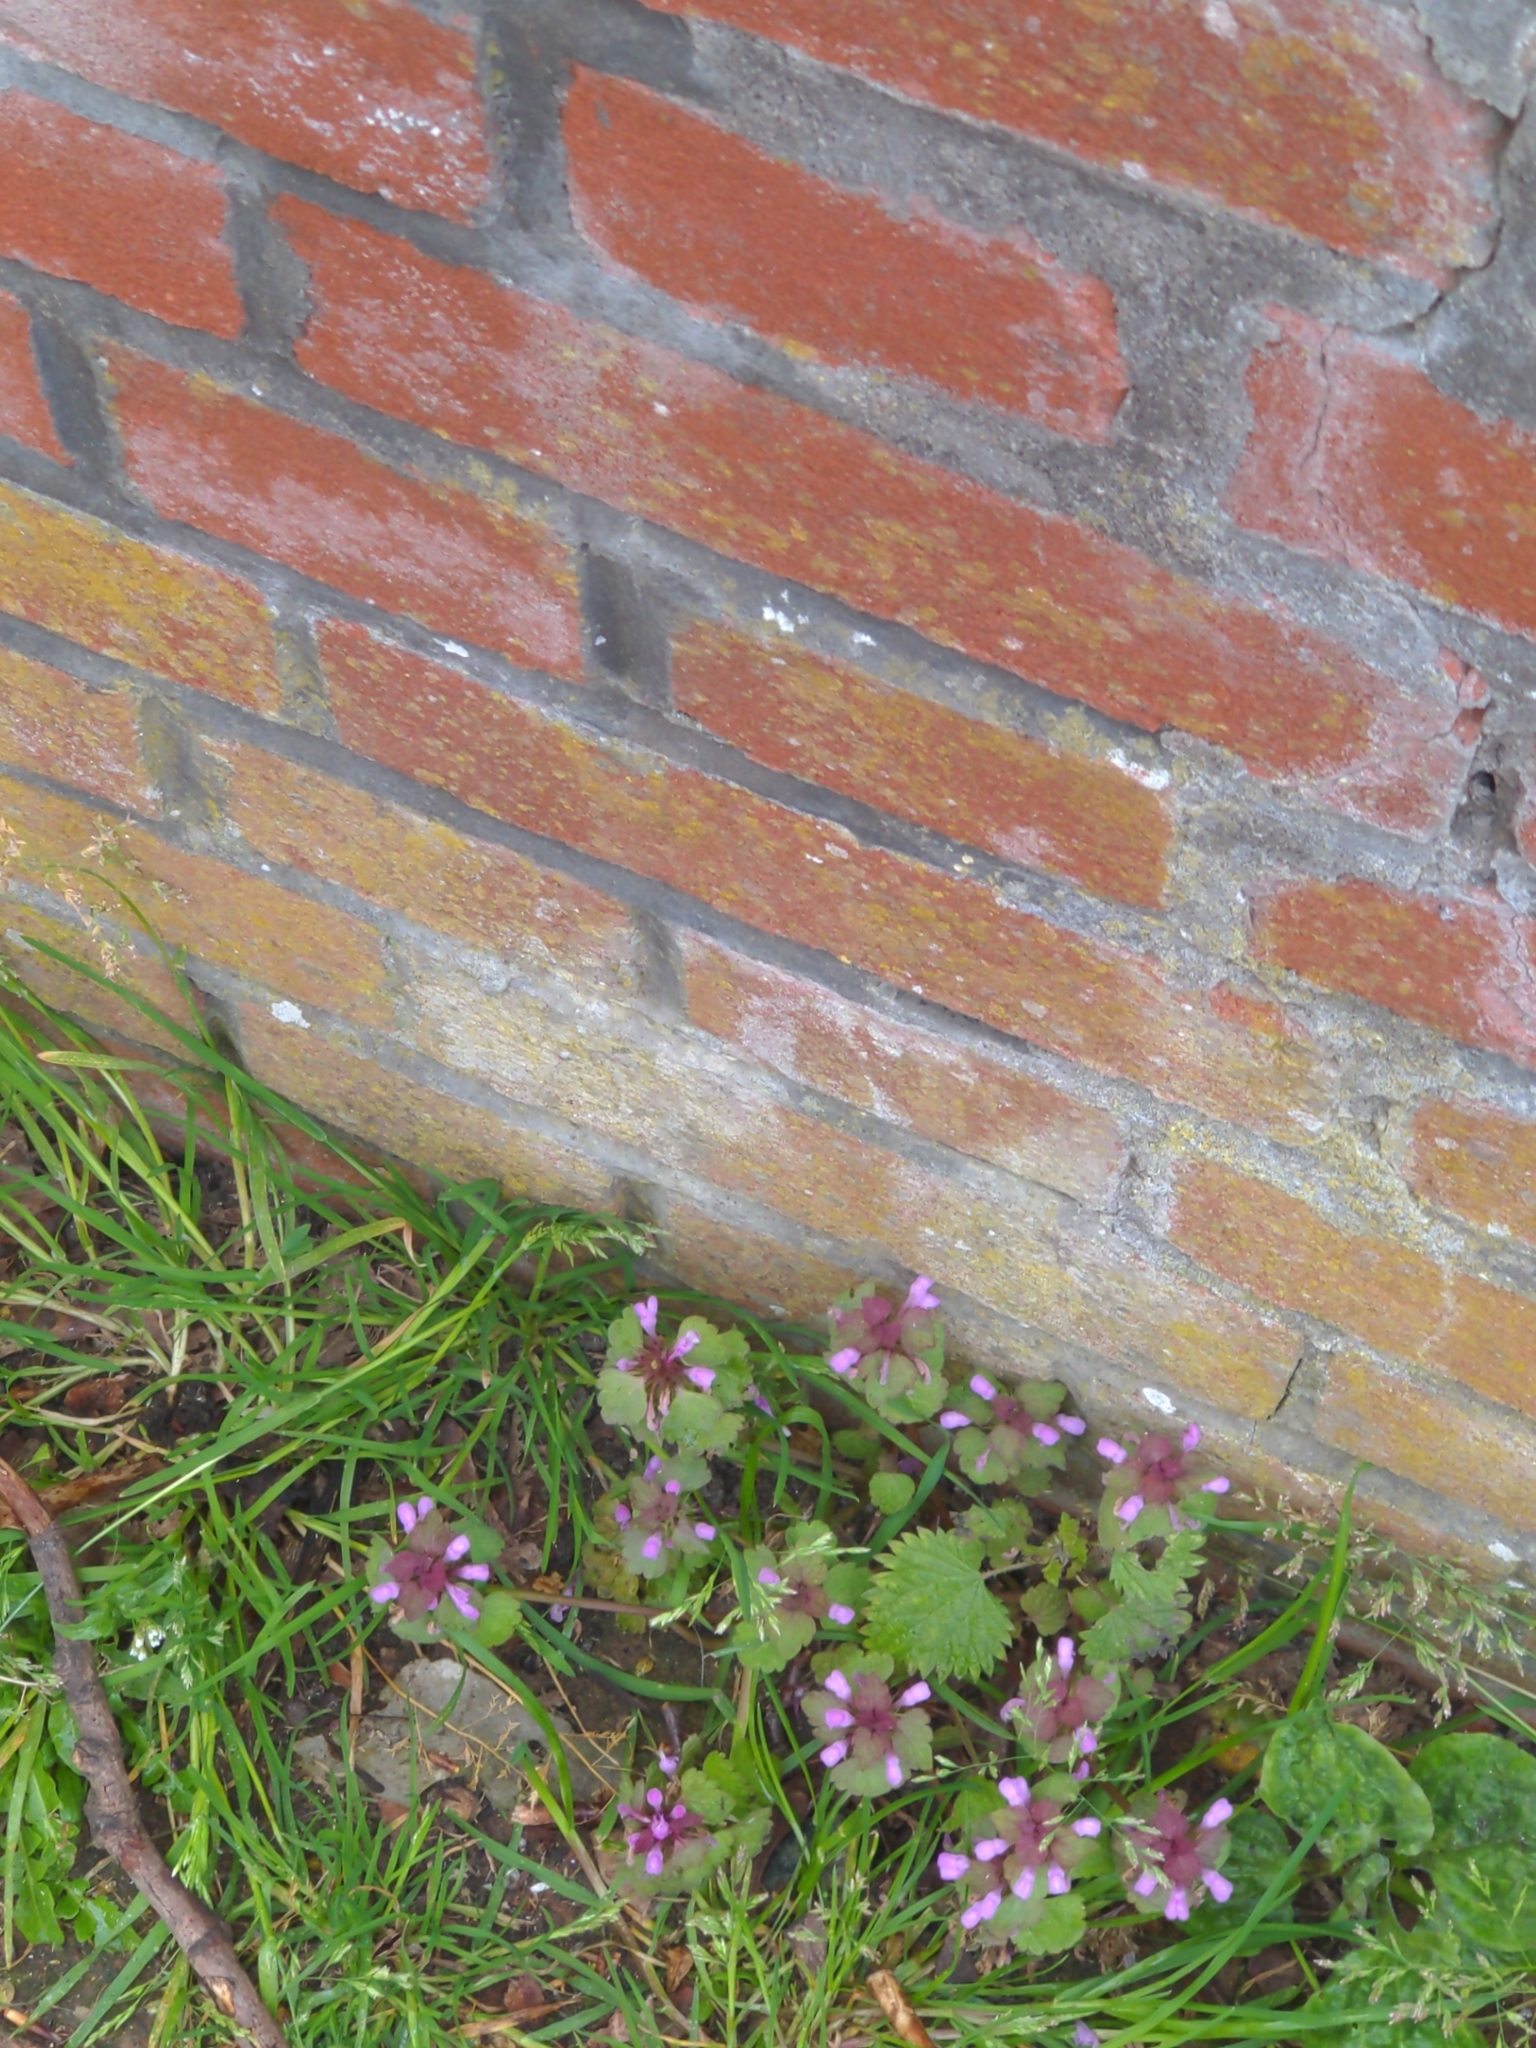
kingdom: Plantae
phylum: Tracheophyta
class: Magnoliopsida
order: Lamiales
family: Lamiaceae
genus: Lamium
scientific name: Lamium purpureum
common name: Red dead-nettle
